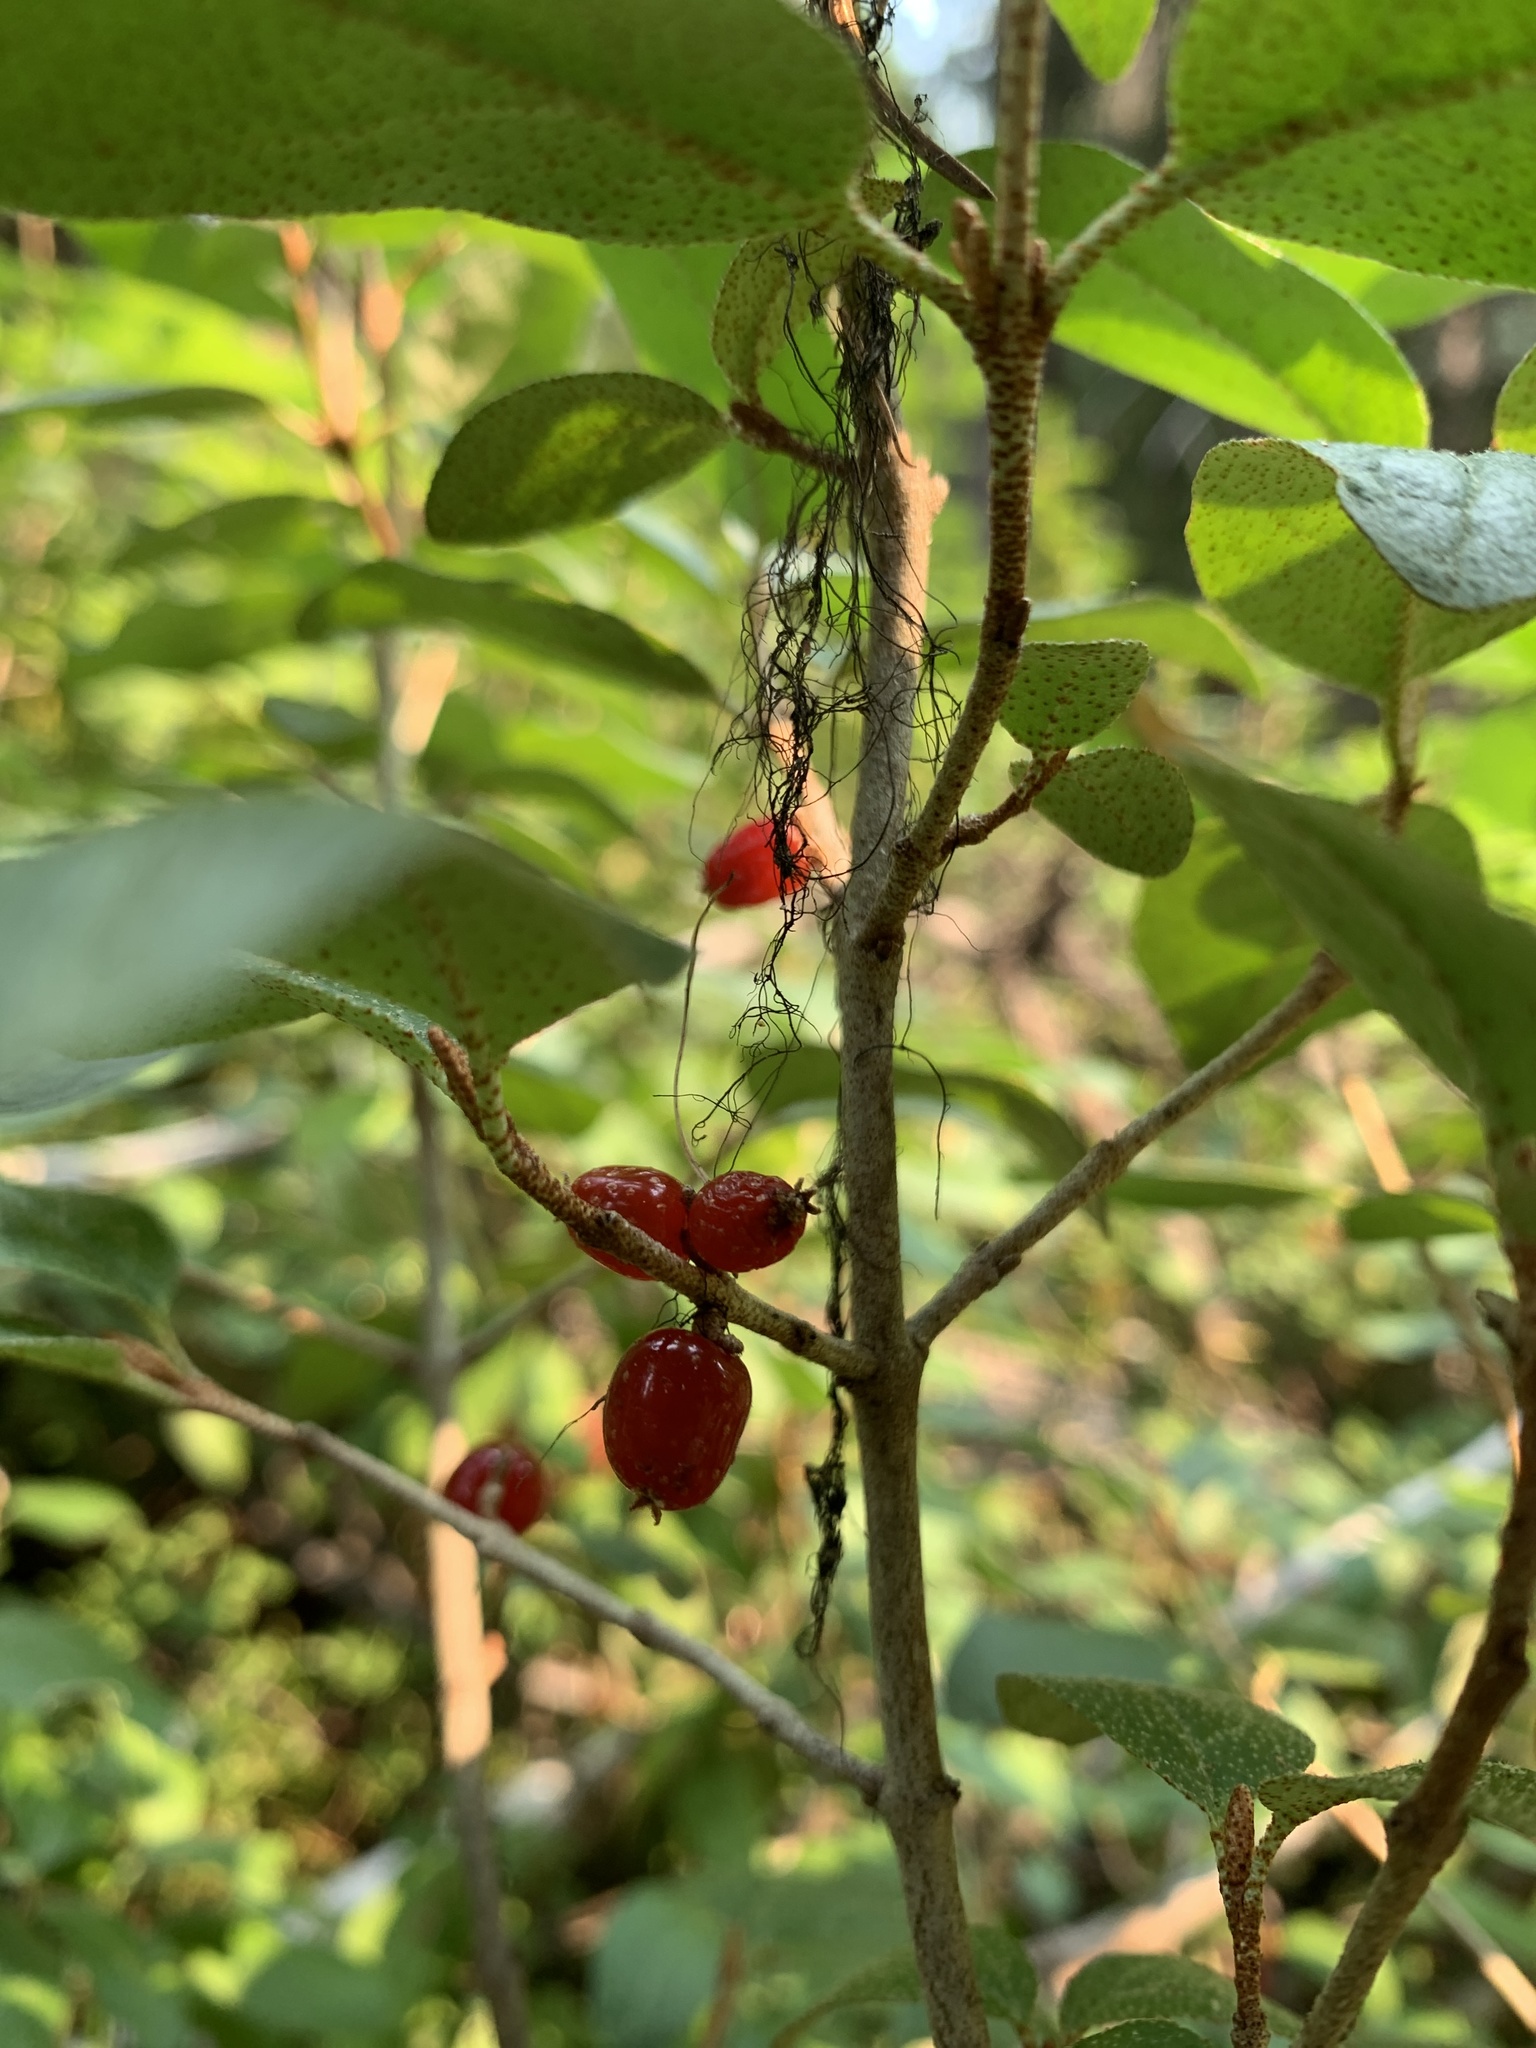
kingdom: Plantae
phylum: Tracheophyta
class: Magnoliopsida
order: Rosales
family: Elaeagnaceae
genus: Shepherdia
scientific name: Shepherdia canadensis
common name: Soapberry
